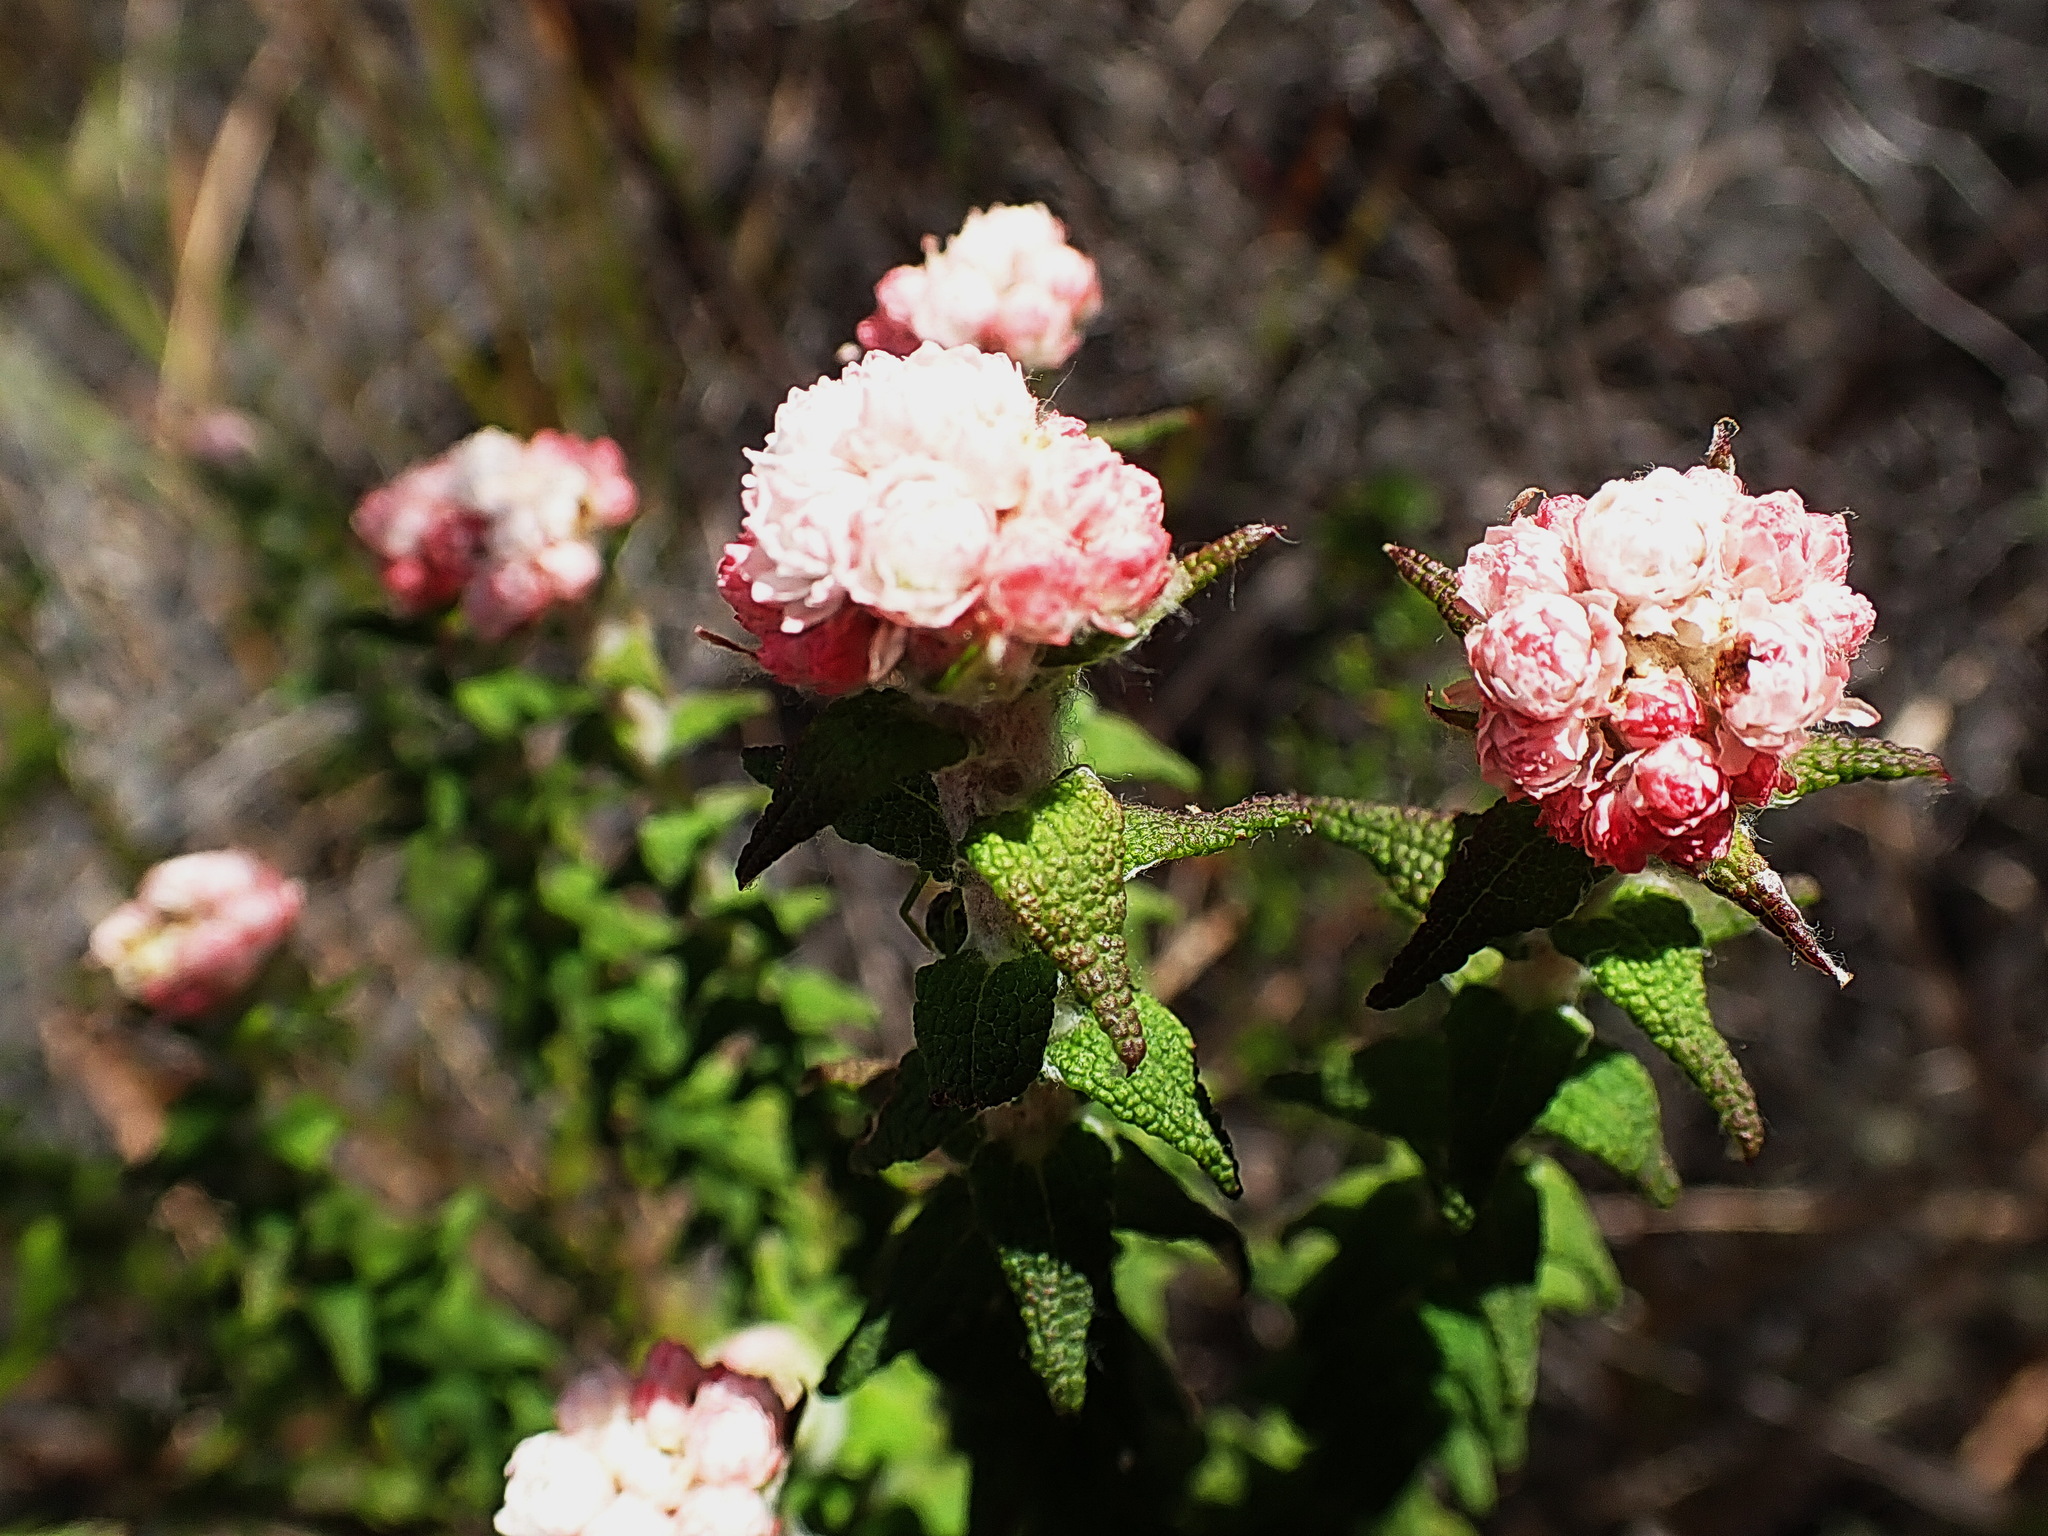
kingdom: Plantae
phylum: Tracheophyta
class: Magnoliopsida
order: Asterales
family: Asteraceae
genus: Helichrysum
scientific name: Helichrysum felinum
